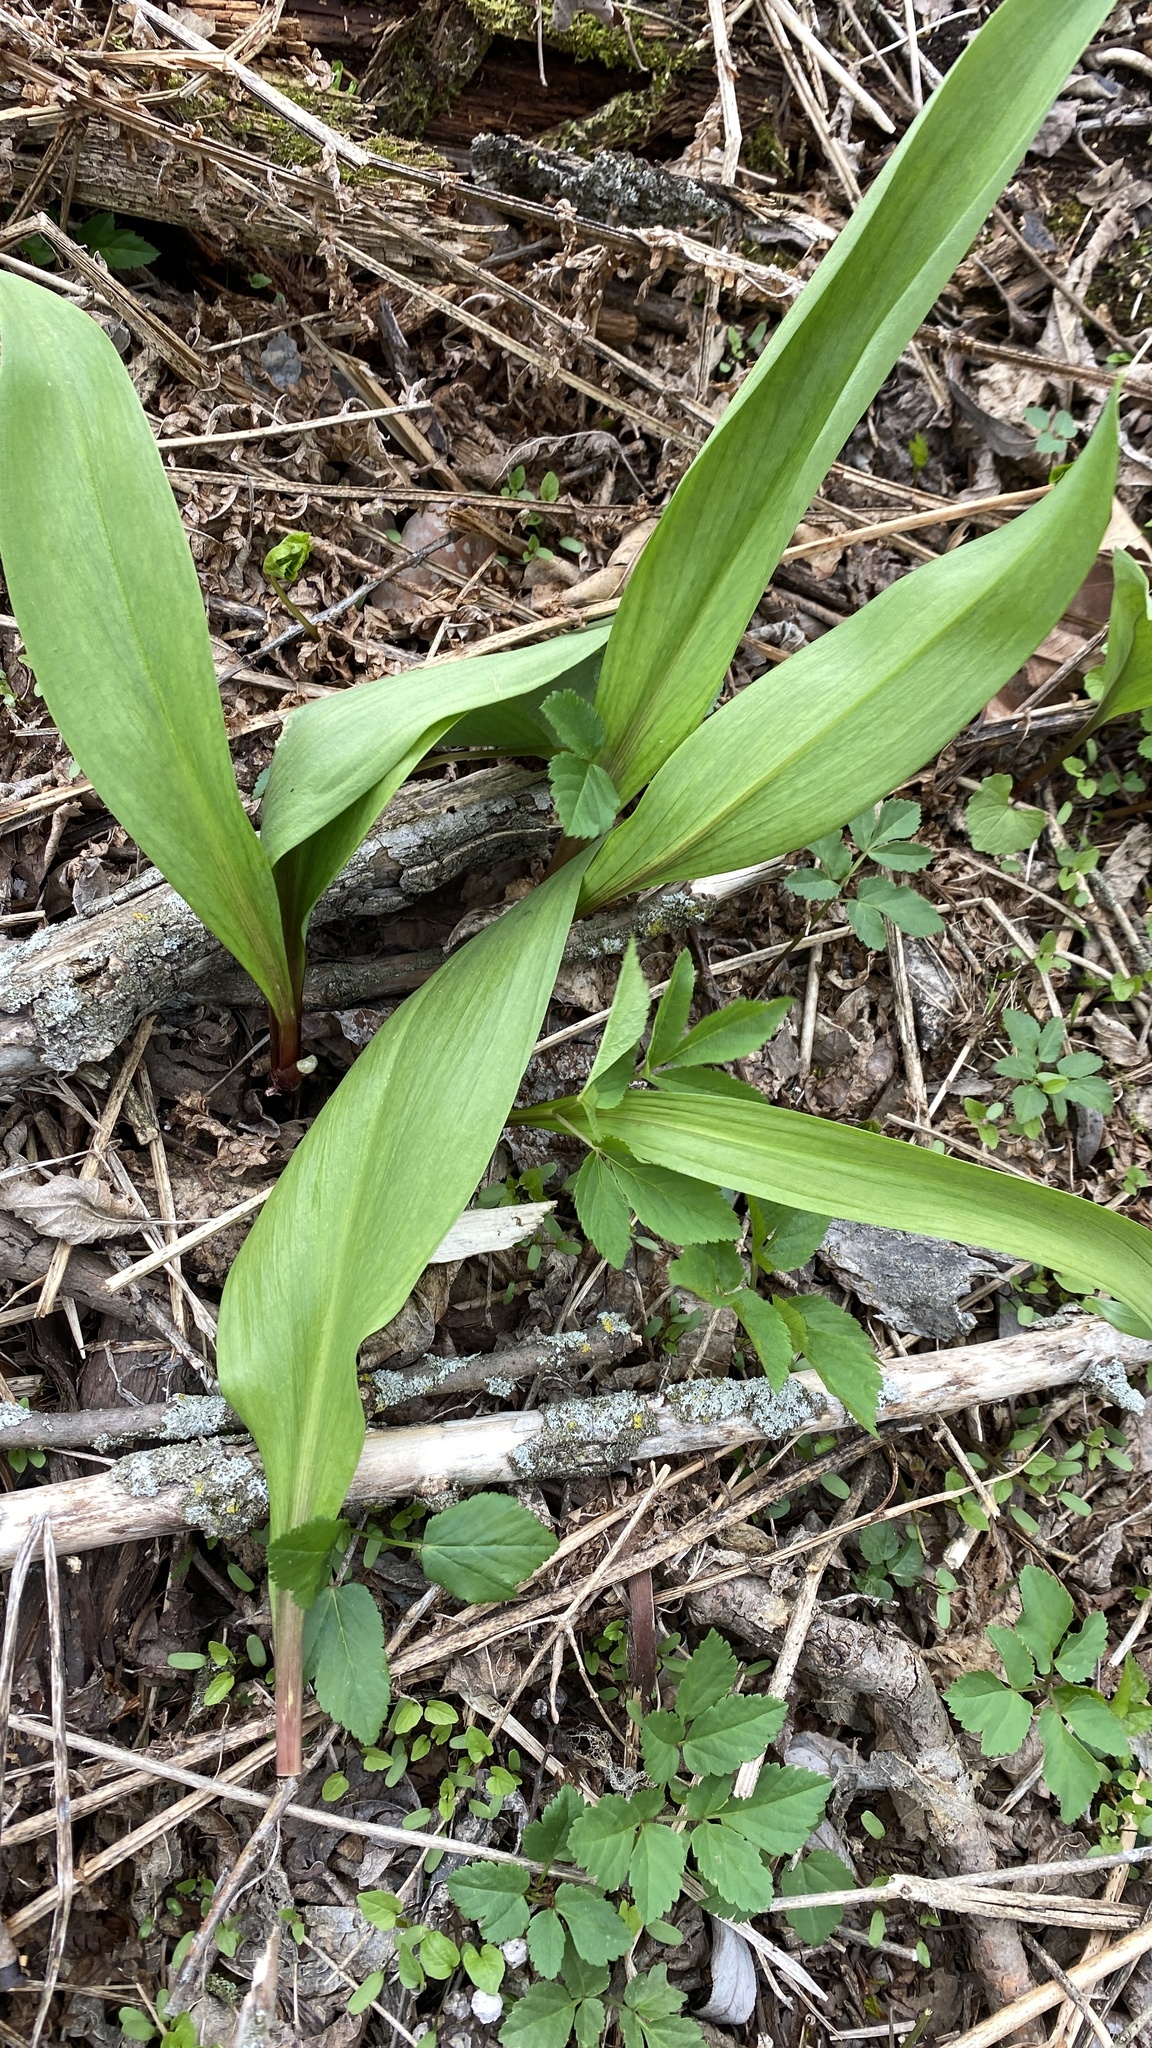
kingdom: Plantae
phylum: Tracheophyta
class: Liliopsida
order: Asparagales
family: Amaryllidaceae
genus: Allium
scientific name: Allium tricoccum
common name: Ramp
